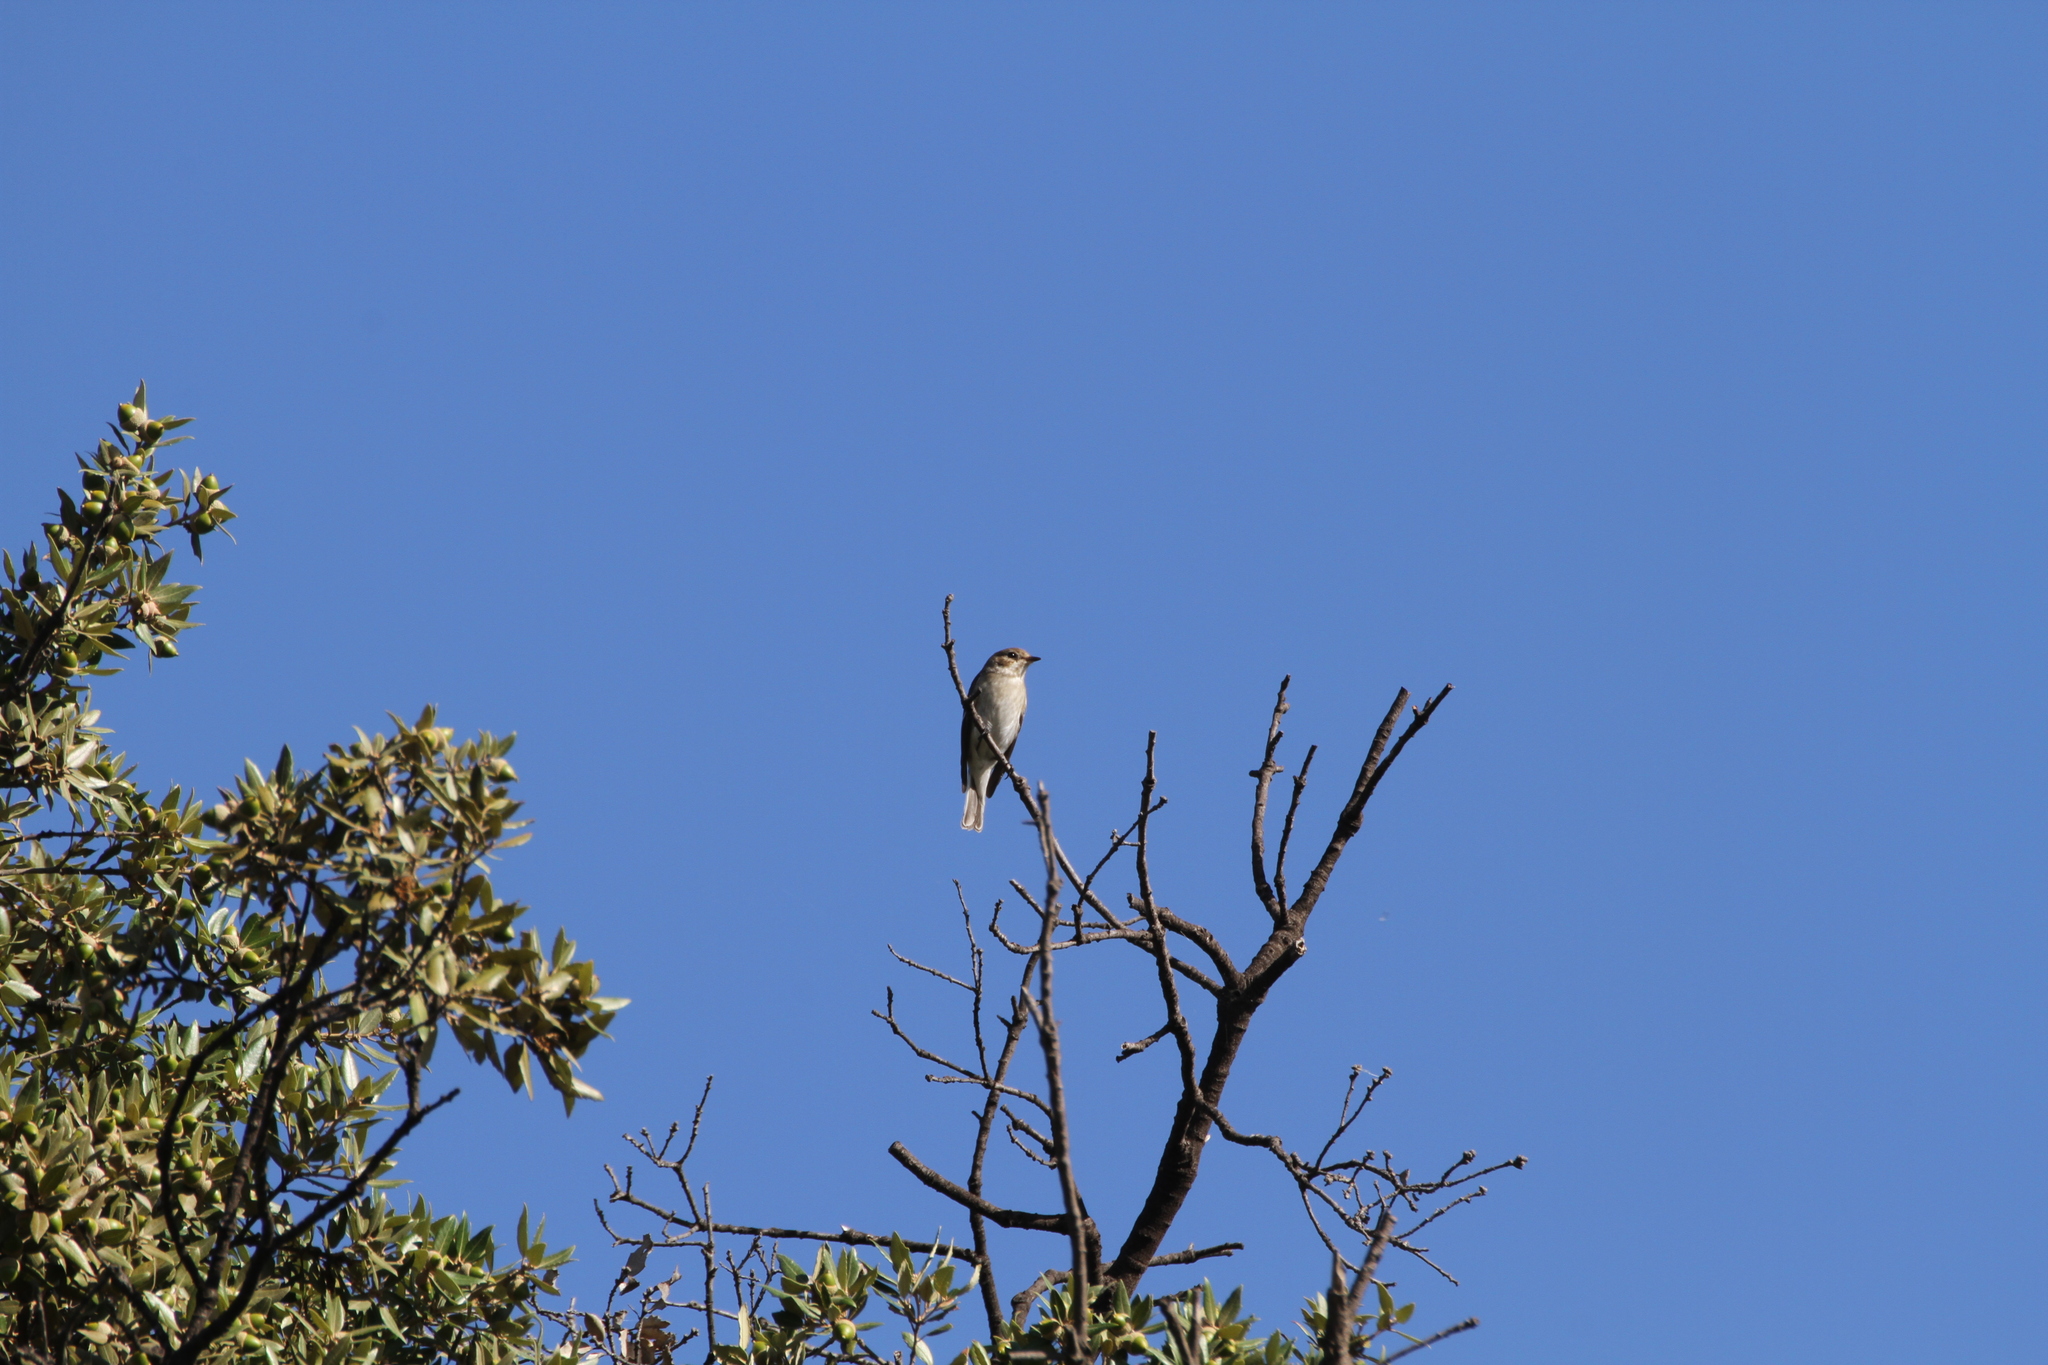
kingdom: Animalia
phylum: Chordata
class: Aves
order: Passeriformes
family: Muscicapidae
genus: Ficedula
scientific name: Ficedula hypoleuca
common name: European pied flycatcher
